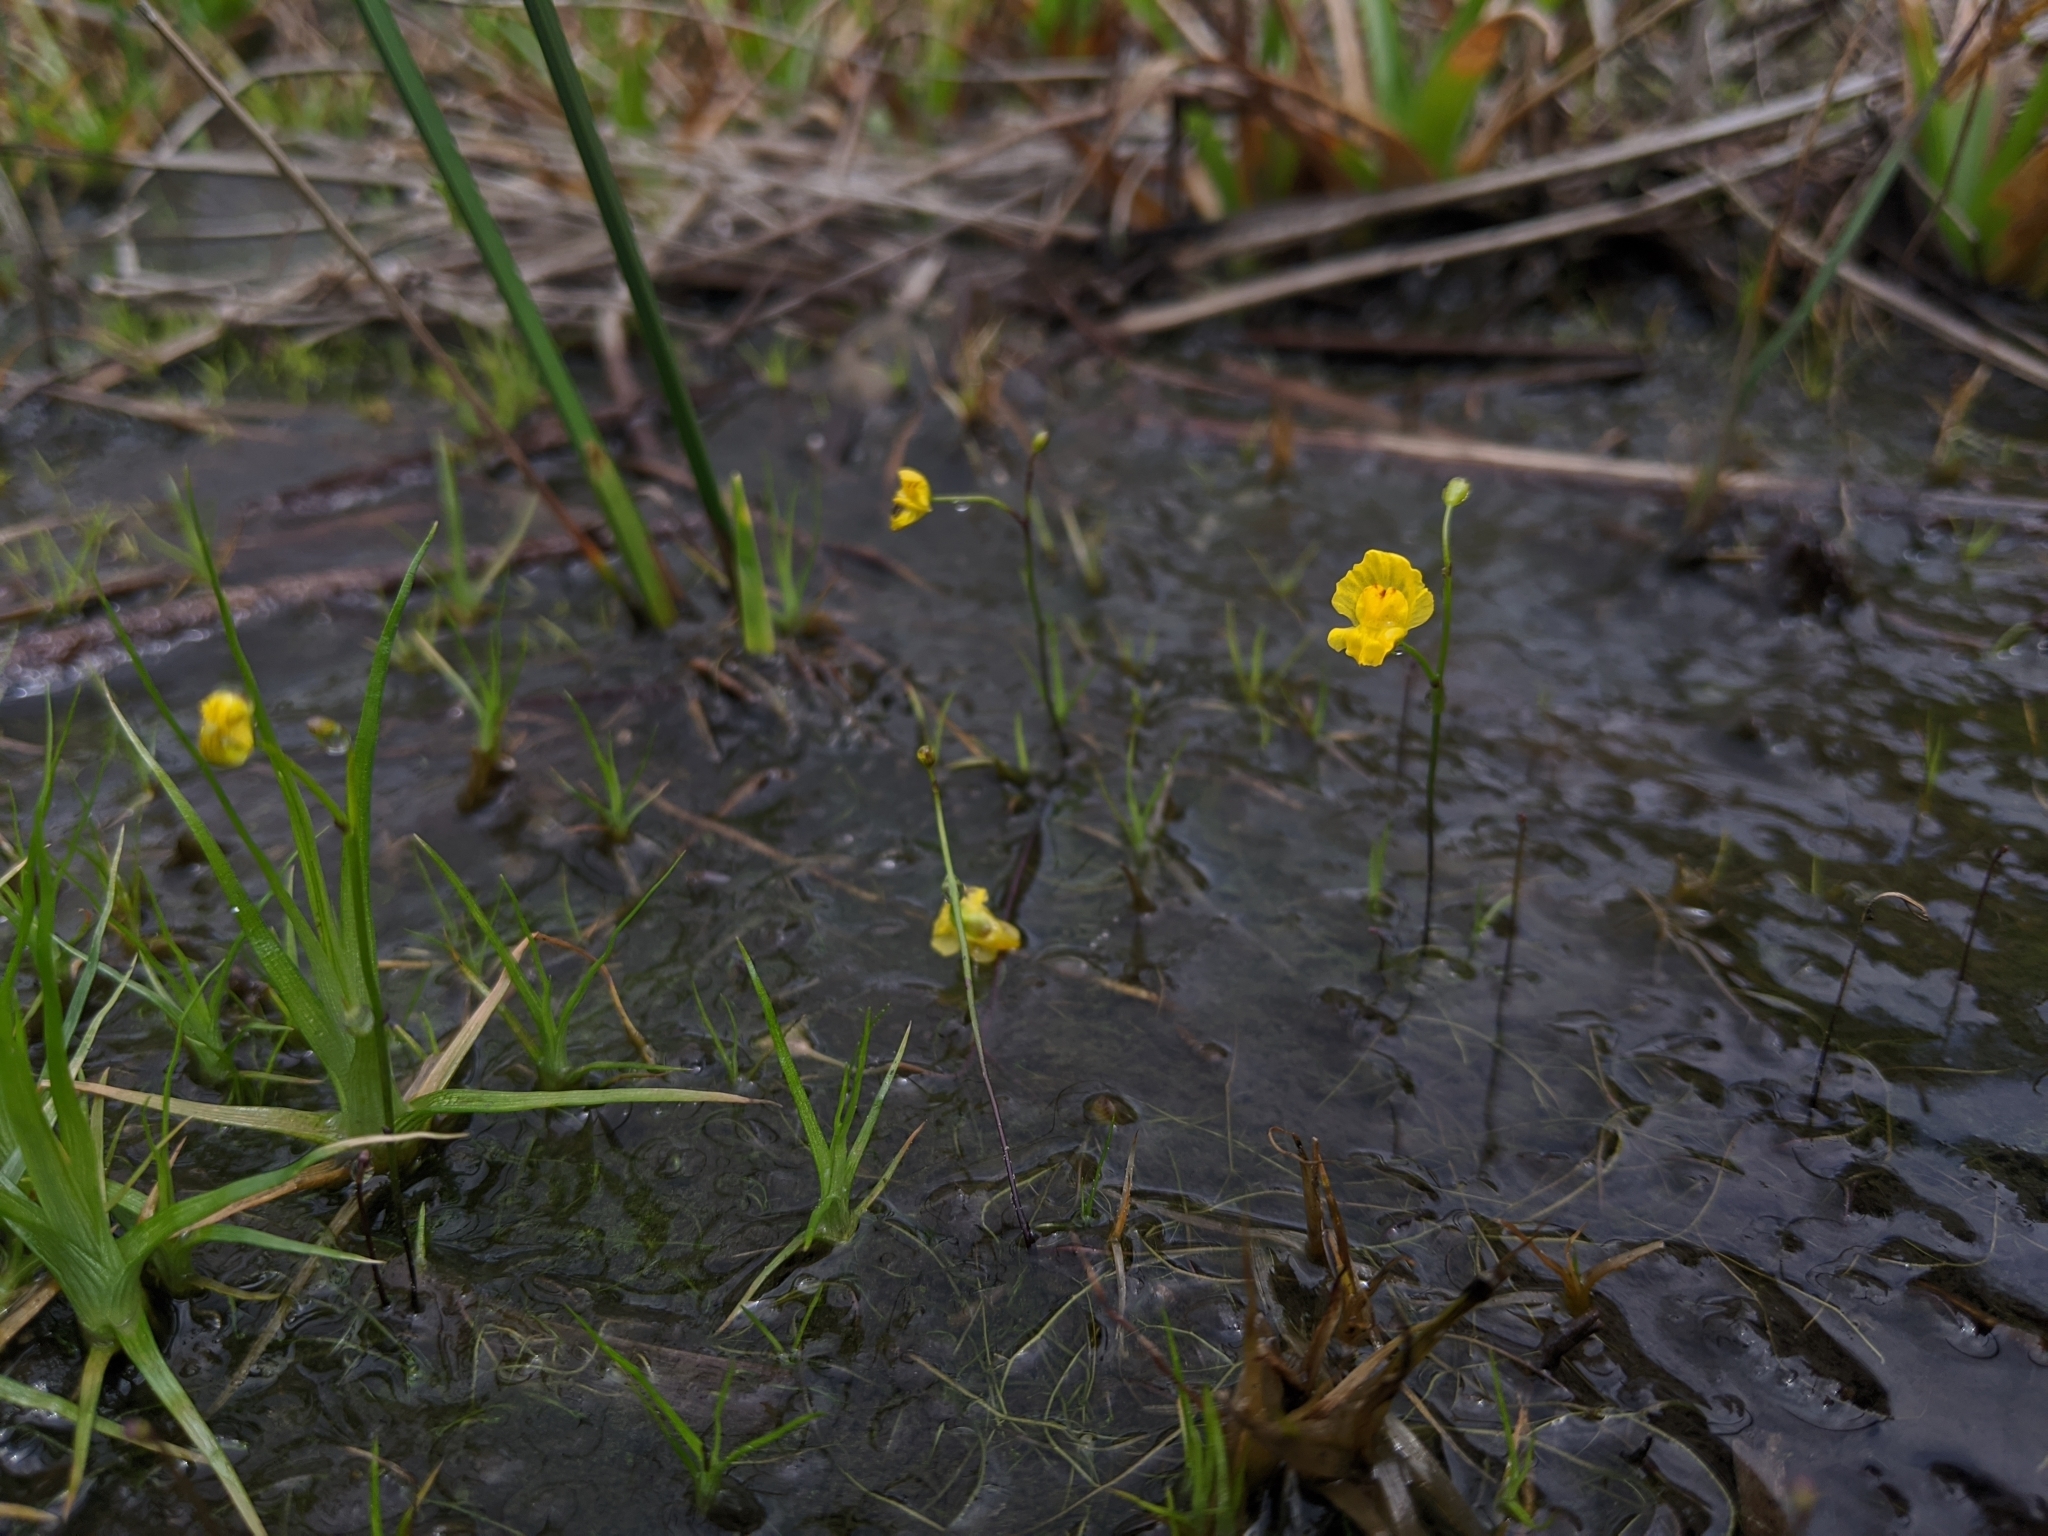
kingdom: Plantae
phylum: Tracheophyta
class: Magnoliopsida
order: Lamiales
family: Lentibulariaceae
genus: Utricularia
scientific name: Utricularia gibba
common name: Humped bladderwort
